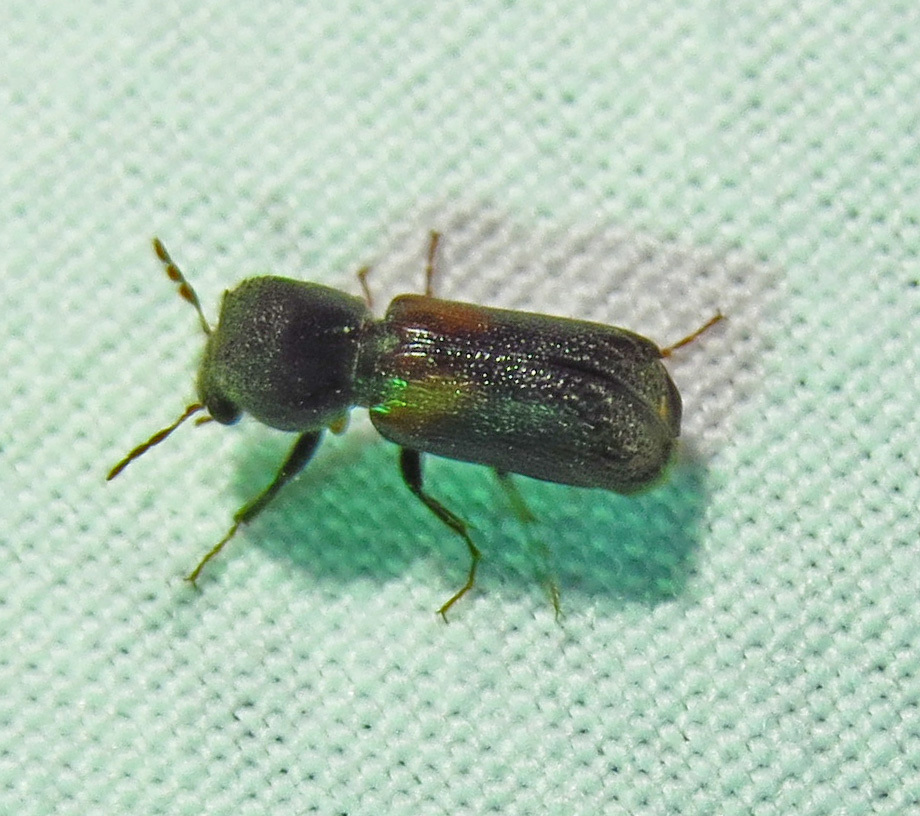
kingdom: Animalia
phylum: Arthropoda
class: Insecta
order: Coleoptera
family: Bostrichidae
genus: Xylobiops
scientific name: Xylobiops basilaris
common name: Red-shouldered bostrichid
